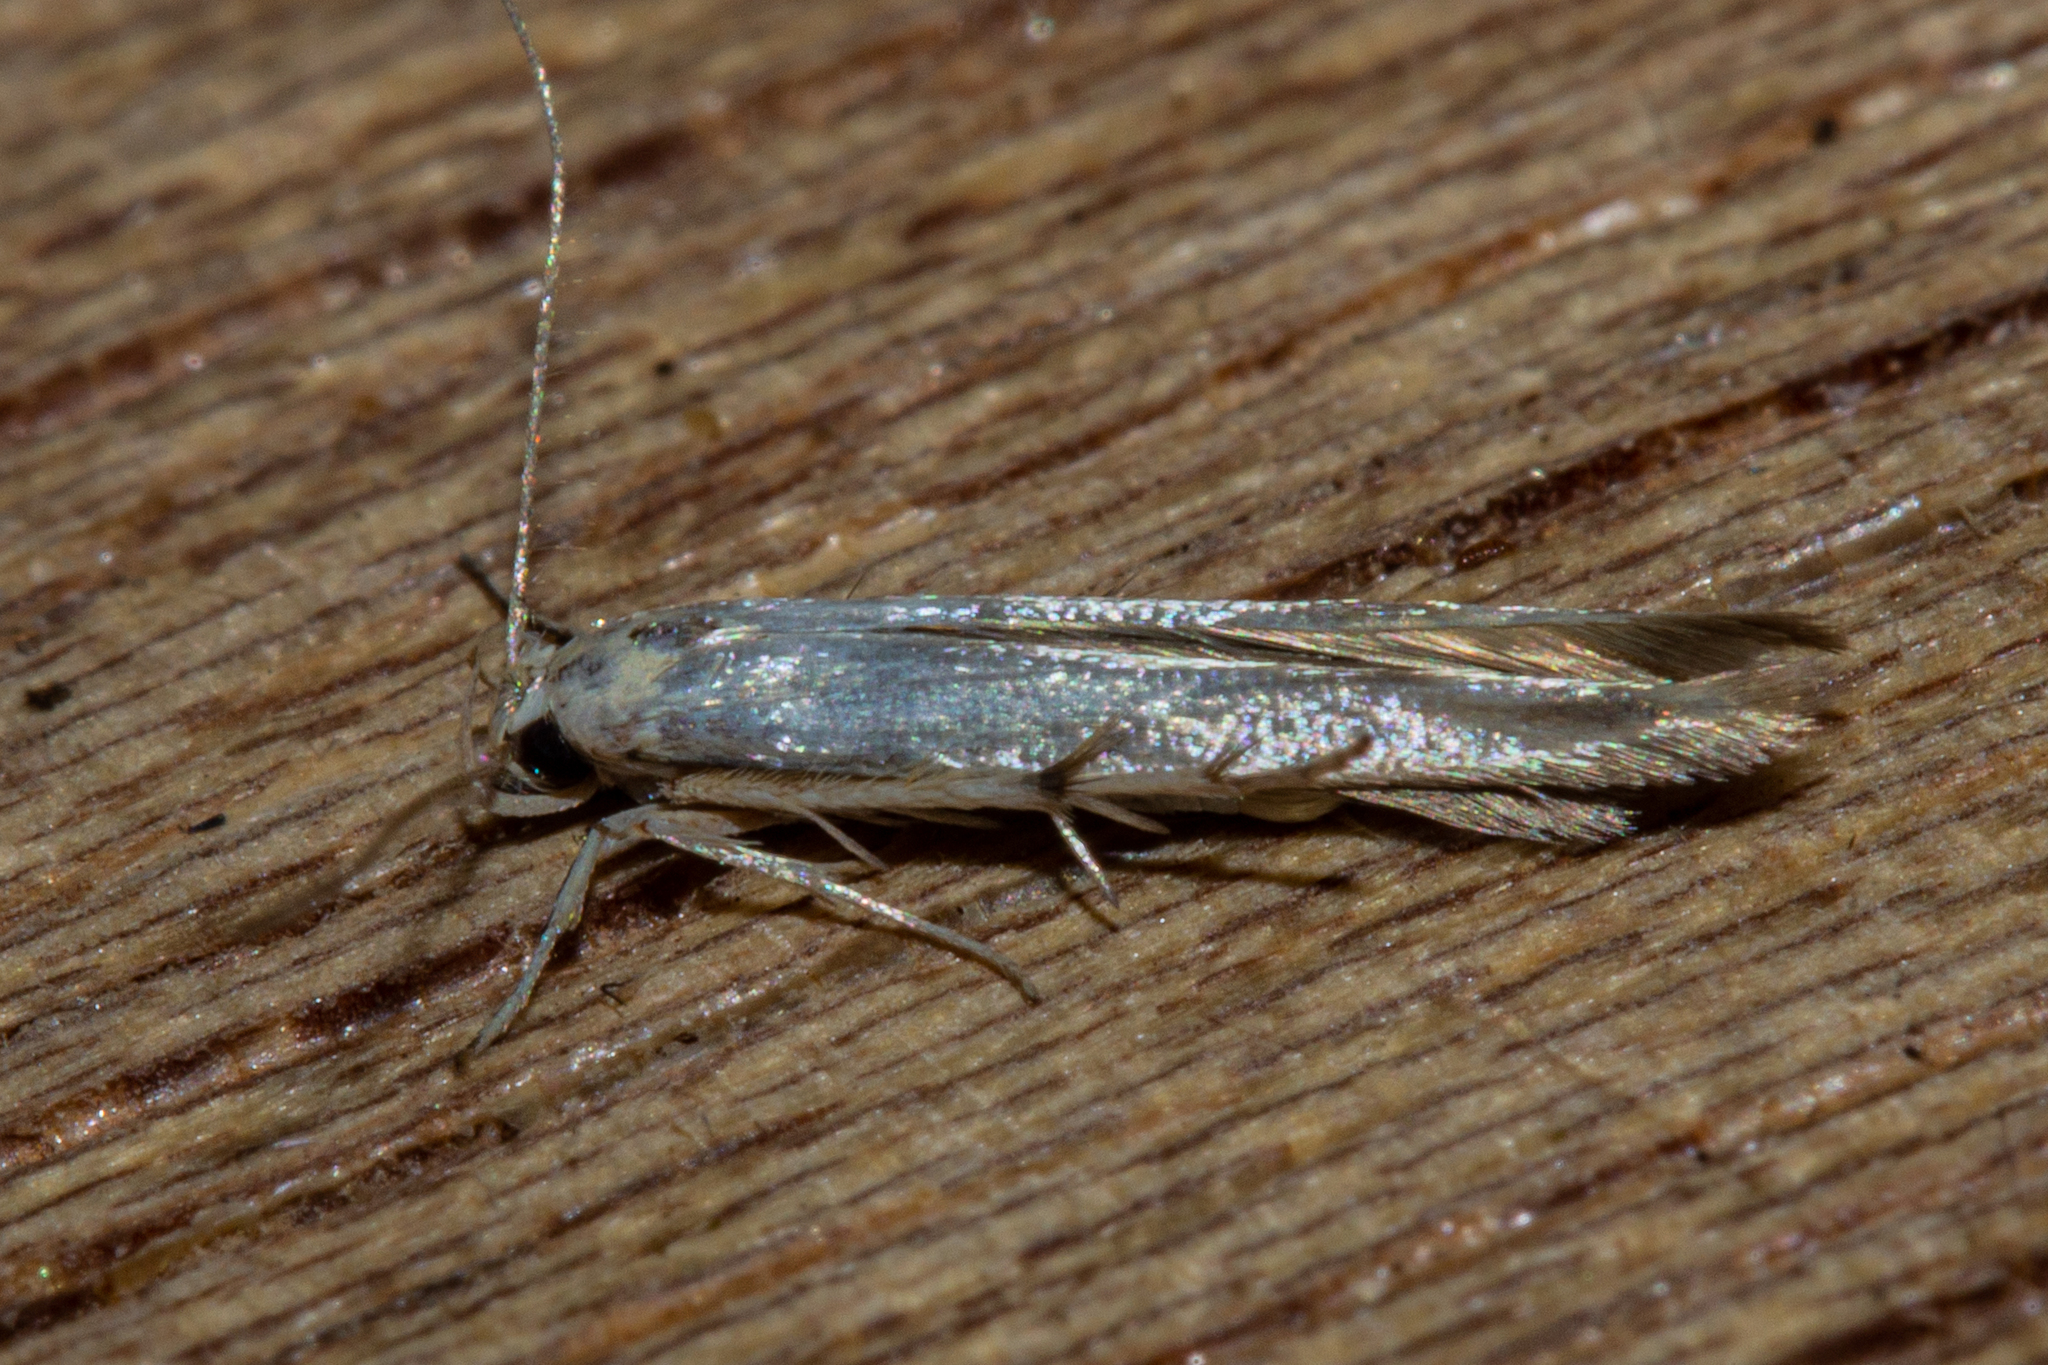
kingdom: Animalia
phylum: Arthropoda
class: Insecta
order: Lepidoptera
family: Stathmopodidae
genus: Stathmopoda
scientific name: Stathmopoda horticola
